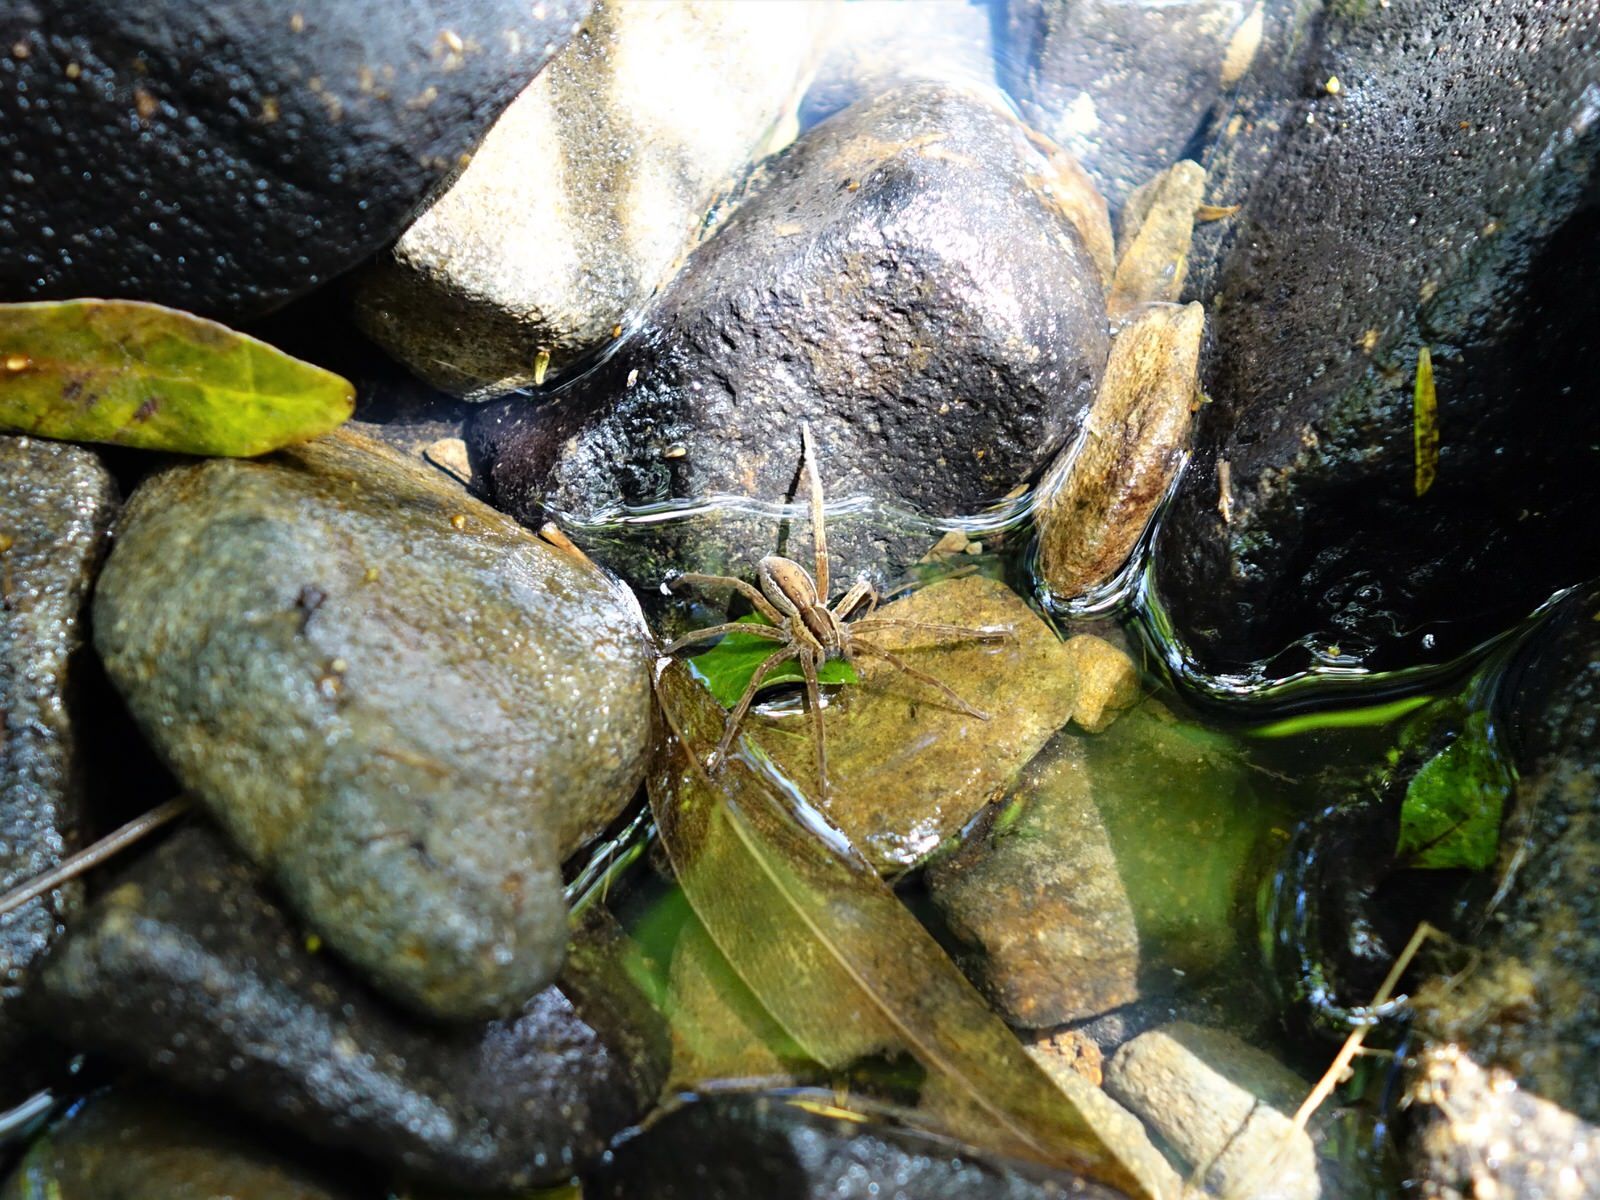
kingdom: Animalia
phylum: Arthropoda
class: Arachnida
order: Araneae
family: Pisauridae
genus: Dolomedes
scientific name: Dolomedes minor
